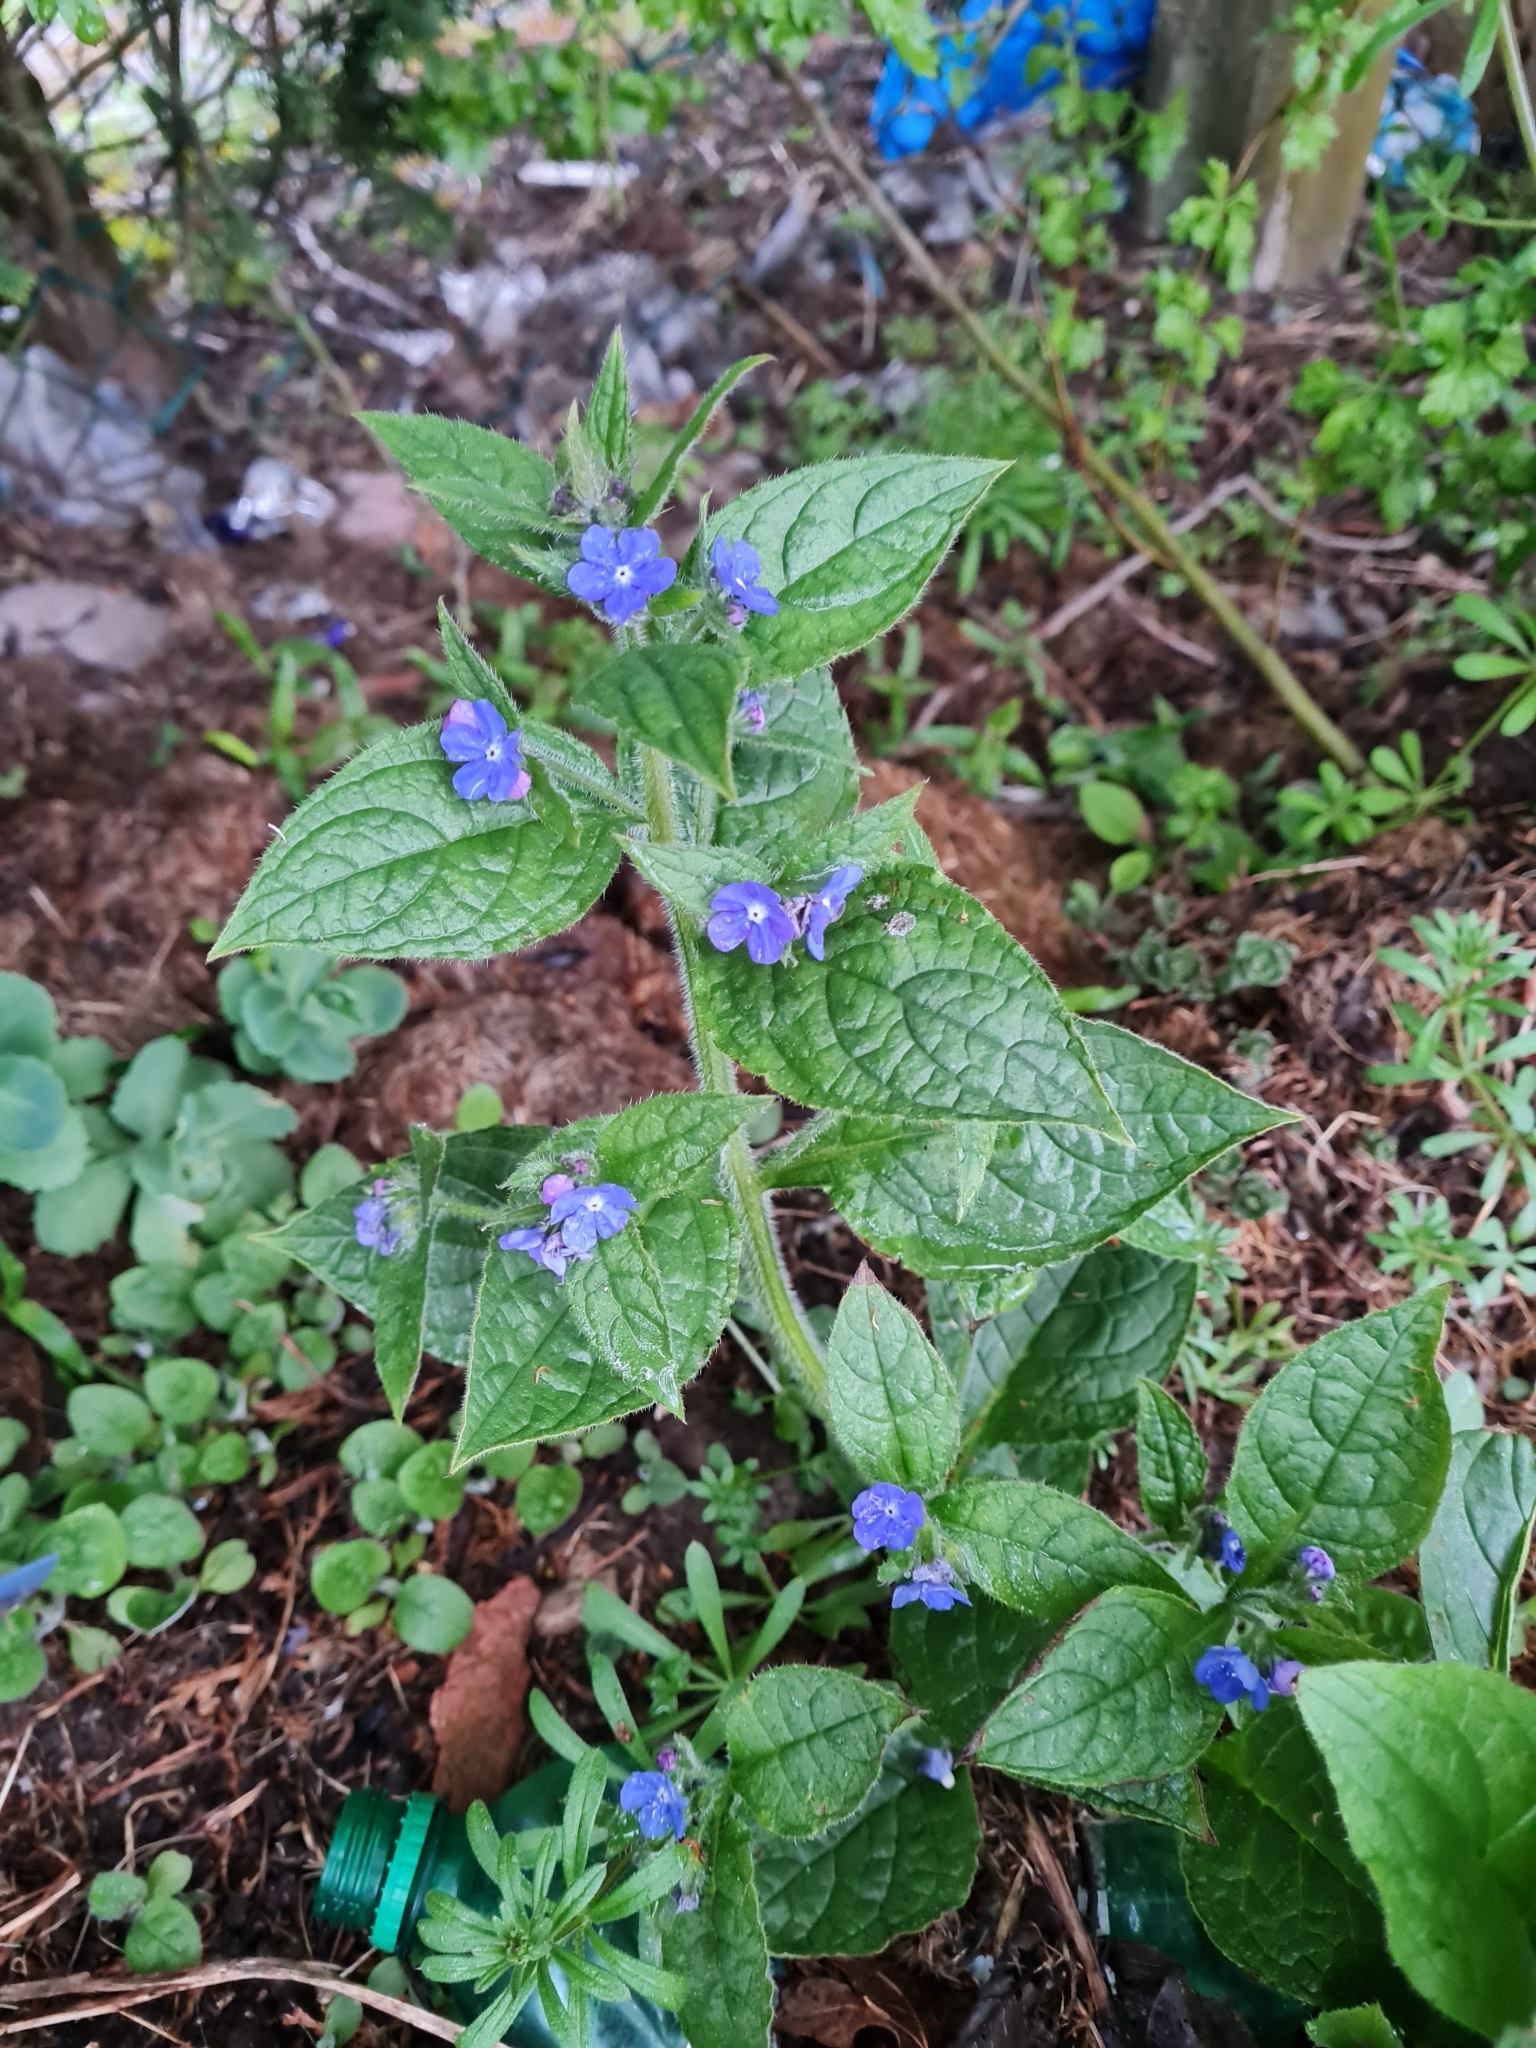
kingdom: Plantae
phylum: Tracheophyta
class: Magnoliopsida
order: Boraginales
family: Boraginaceae
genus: Pentaglottis
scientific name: Pentaglottis sempervirens
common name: Green alkanet
